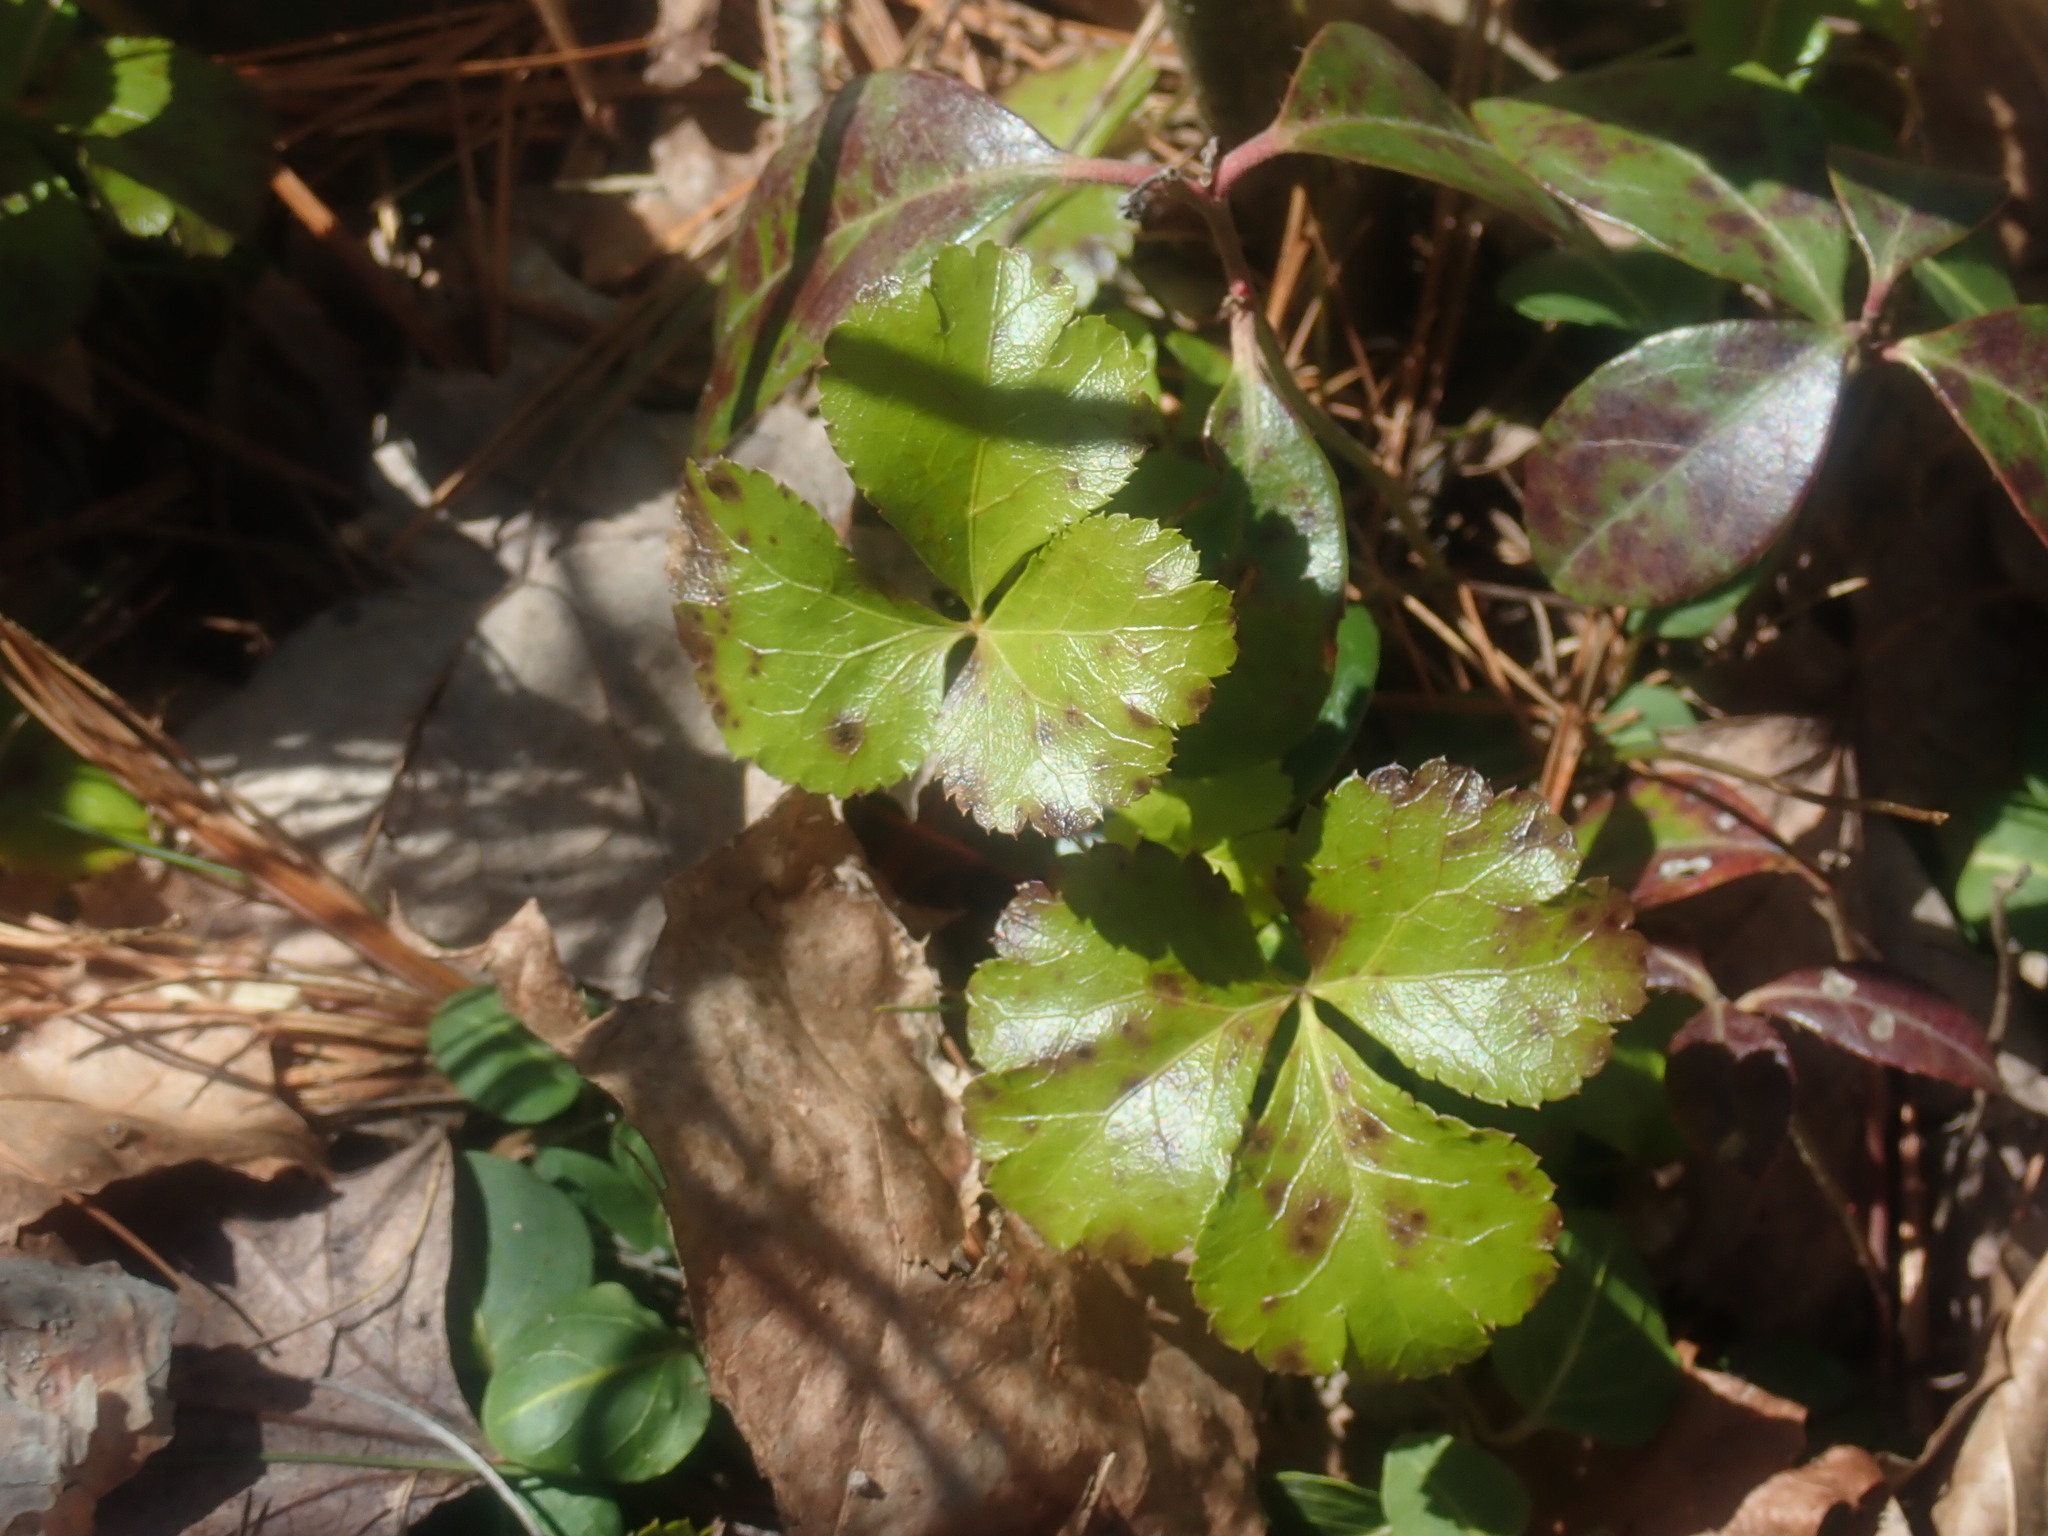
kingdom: Plantae
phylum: Tracheophyta
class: Magnoliopsida
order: Ranunculales
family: Ranunculaceae
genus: Coptis
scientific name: Coptis trifolia
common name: Canker-root
